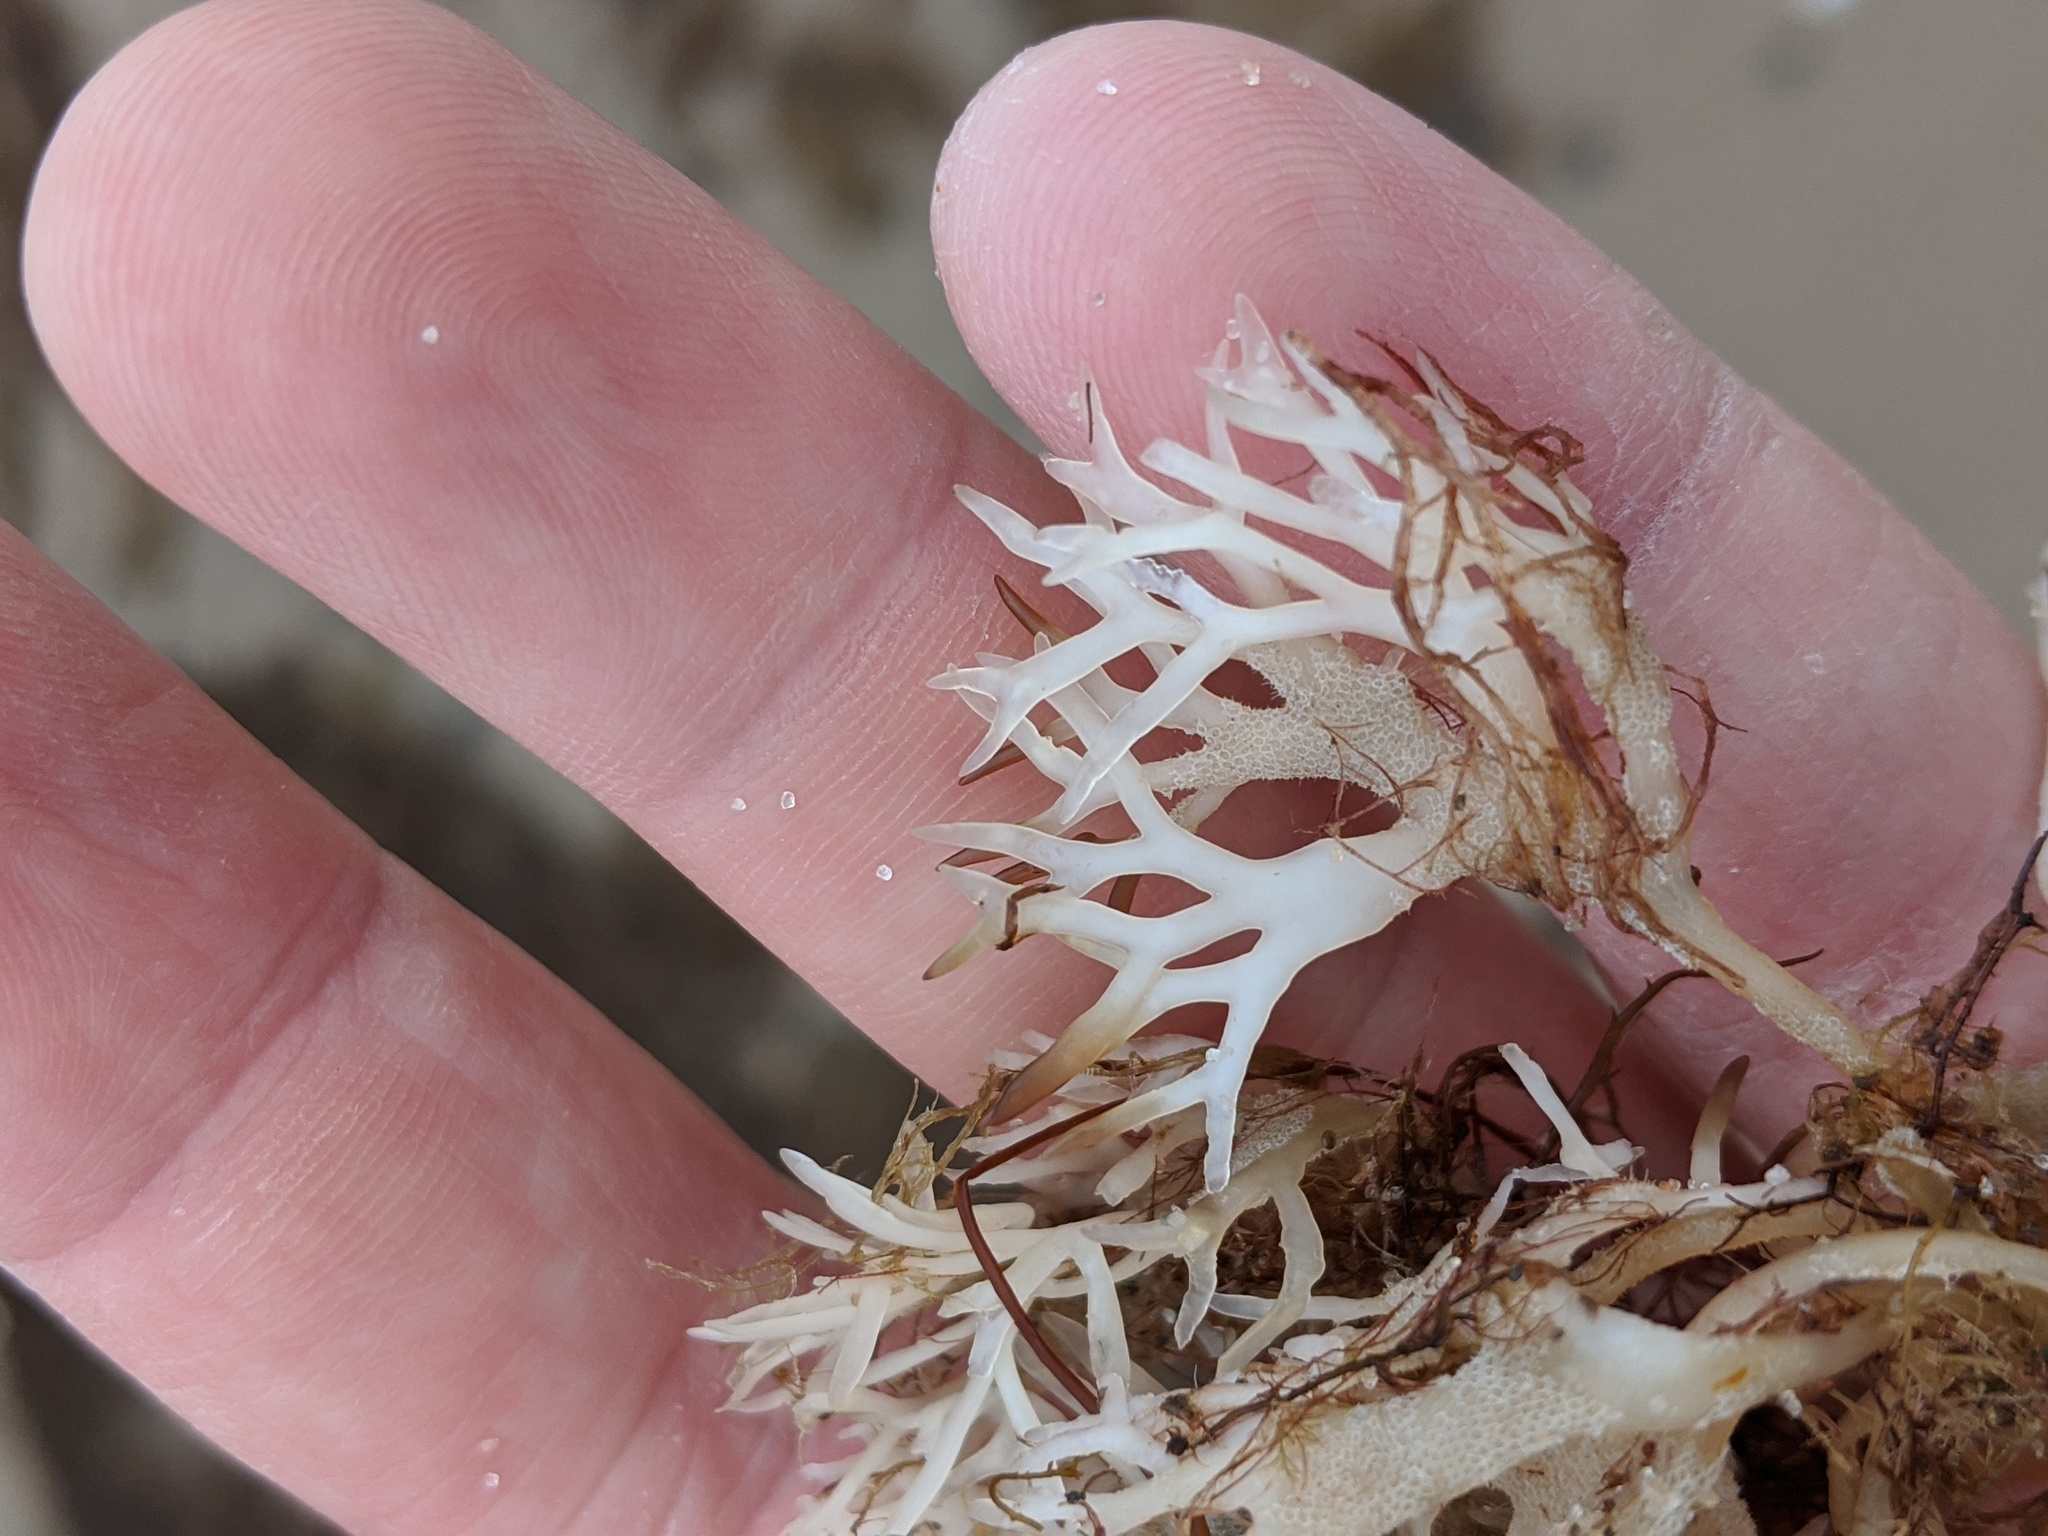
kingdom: Plantae
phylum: Rhodophyta
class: Florideophyceae
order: Gigartinales
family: Gigartinaceae
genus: Chondrus
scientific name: Chondrus crispus
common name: Carrageen
